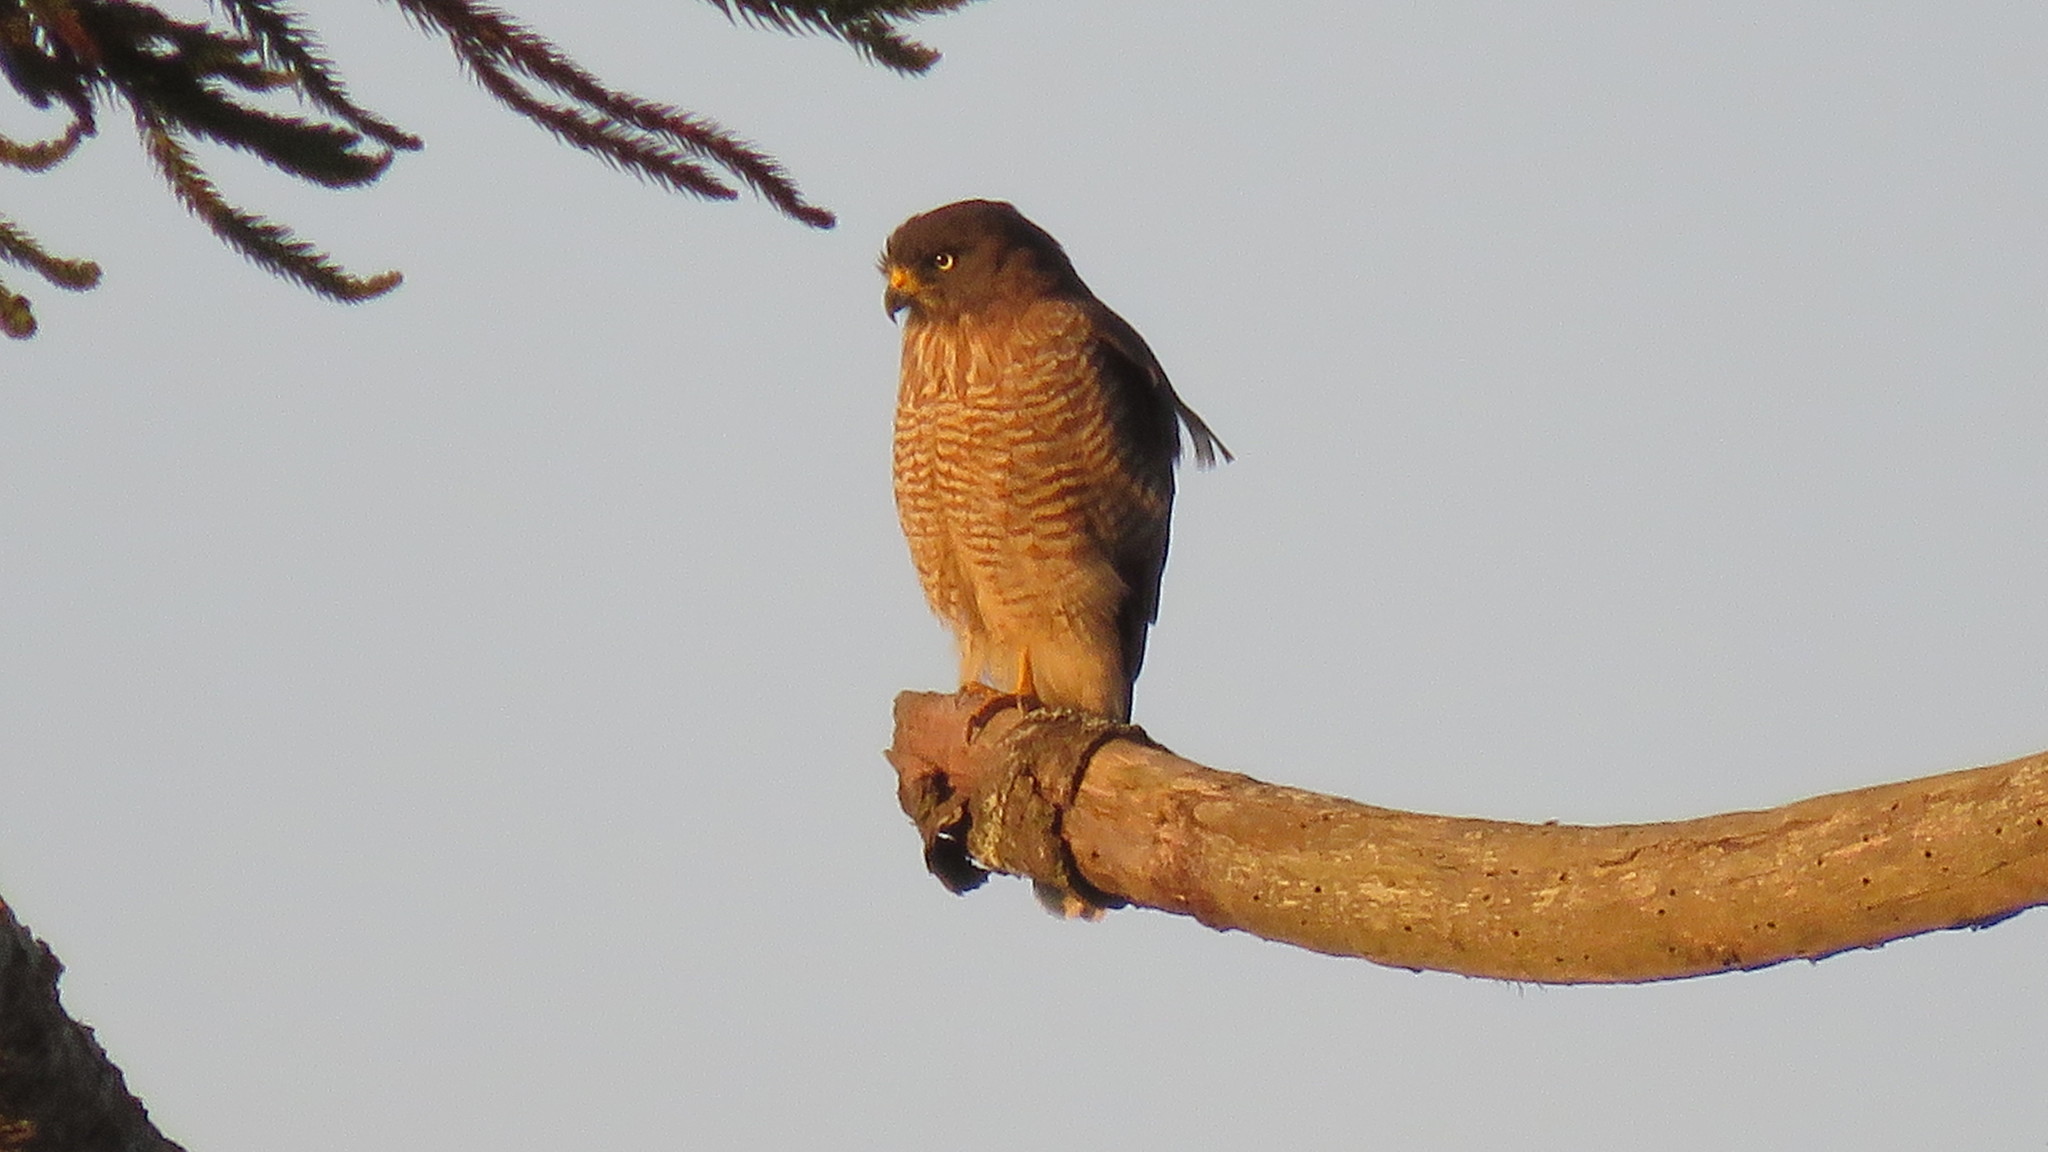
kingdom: Animalia
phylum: Chordata
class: Aves
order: Accipitriformes
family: Accipitridae
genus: Rupornis
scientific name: Rupornis magnirostris
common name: Roadside hawk
